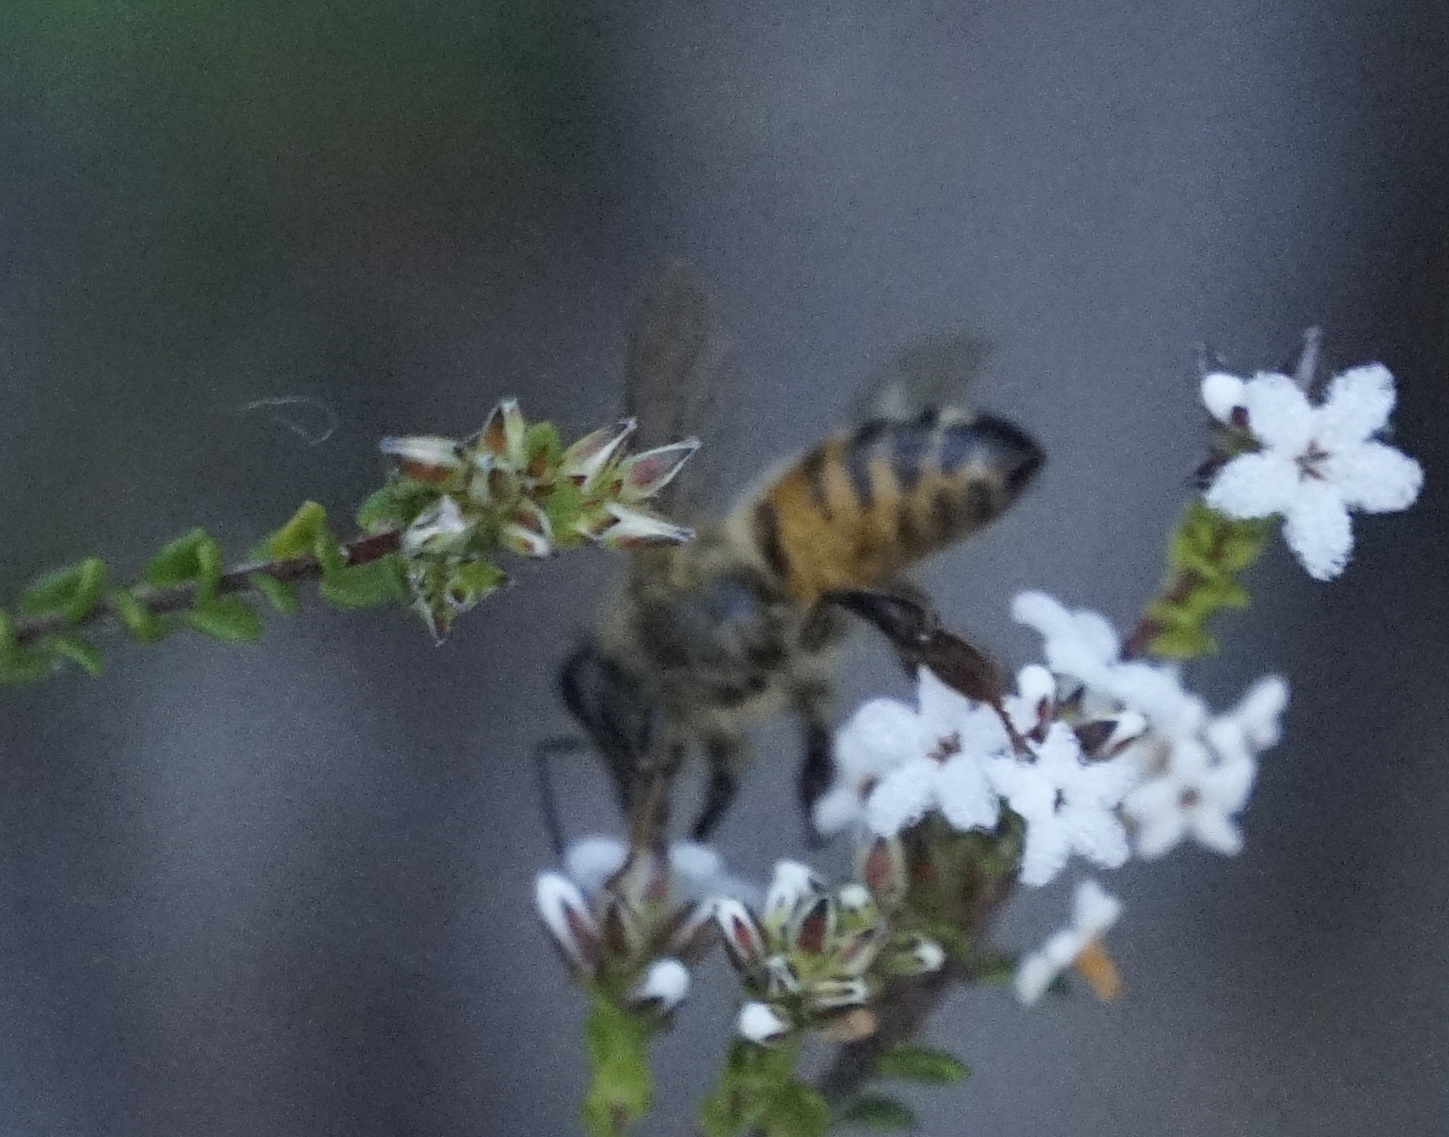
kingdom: Animalia
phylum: Arthropoda
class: Insecta
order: Hymenoptera
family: Apidae
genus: Apis
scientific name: Apis mellifera
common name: Honey bee
